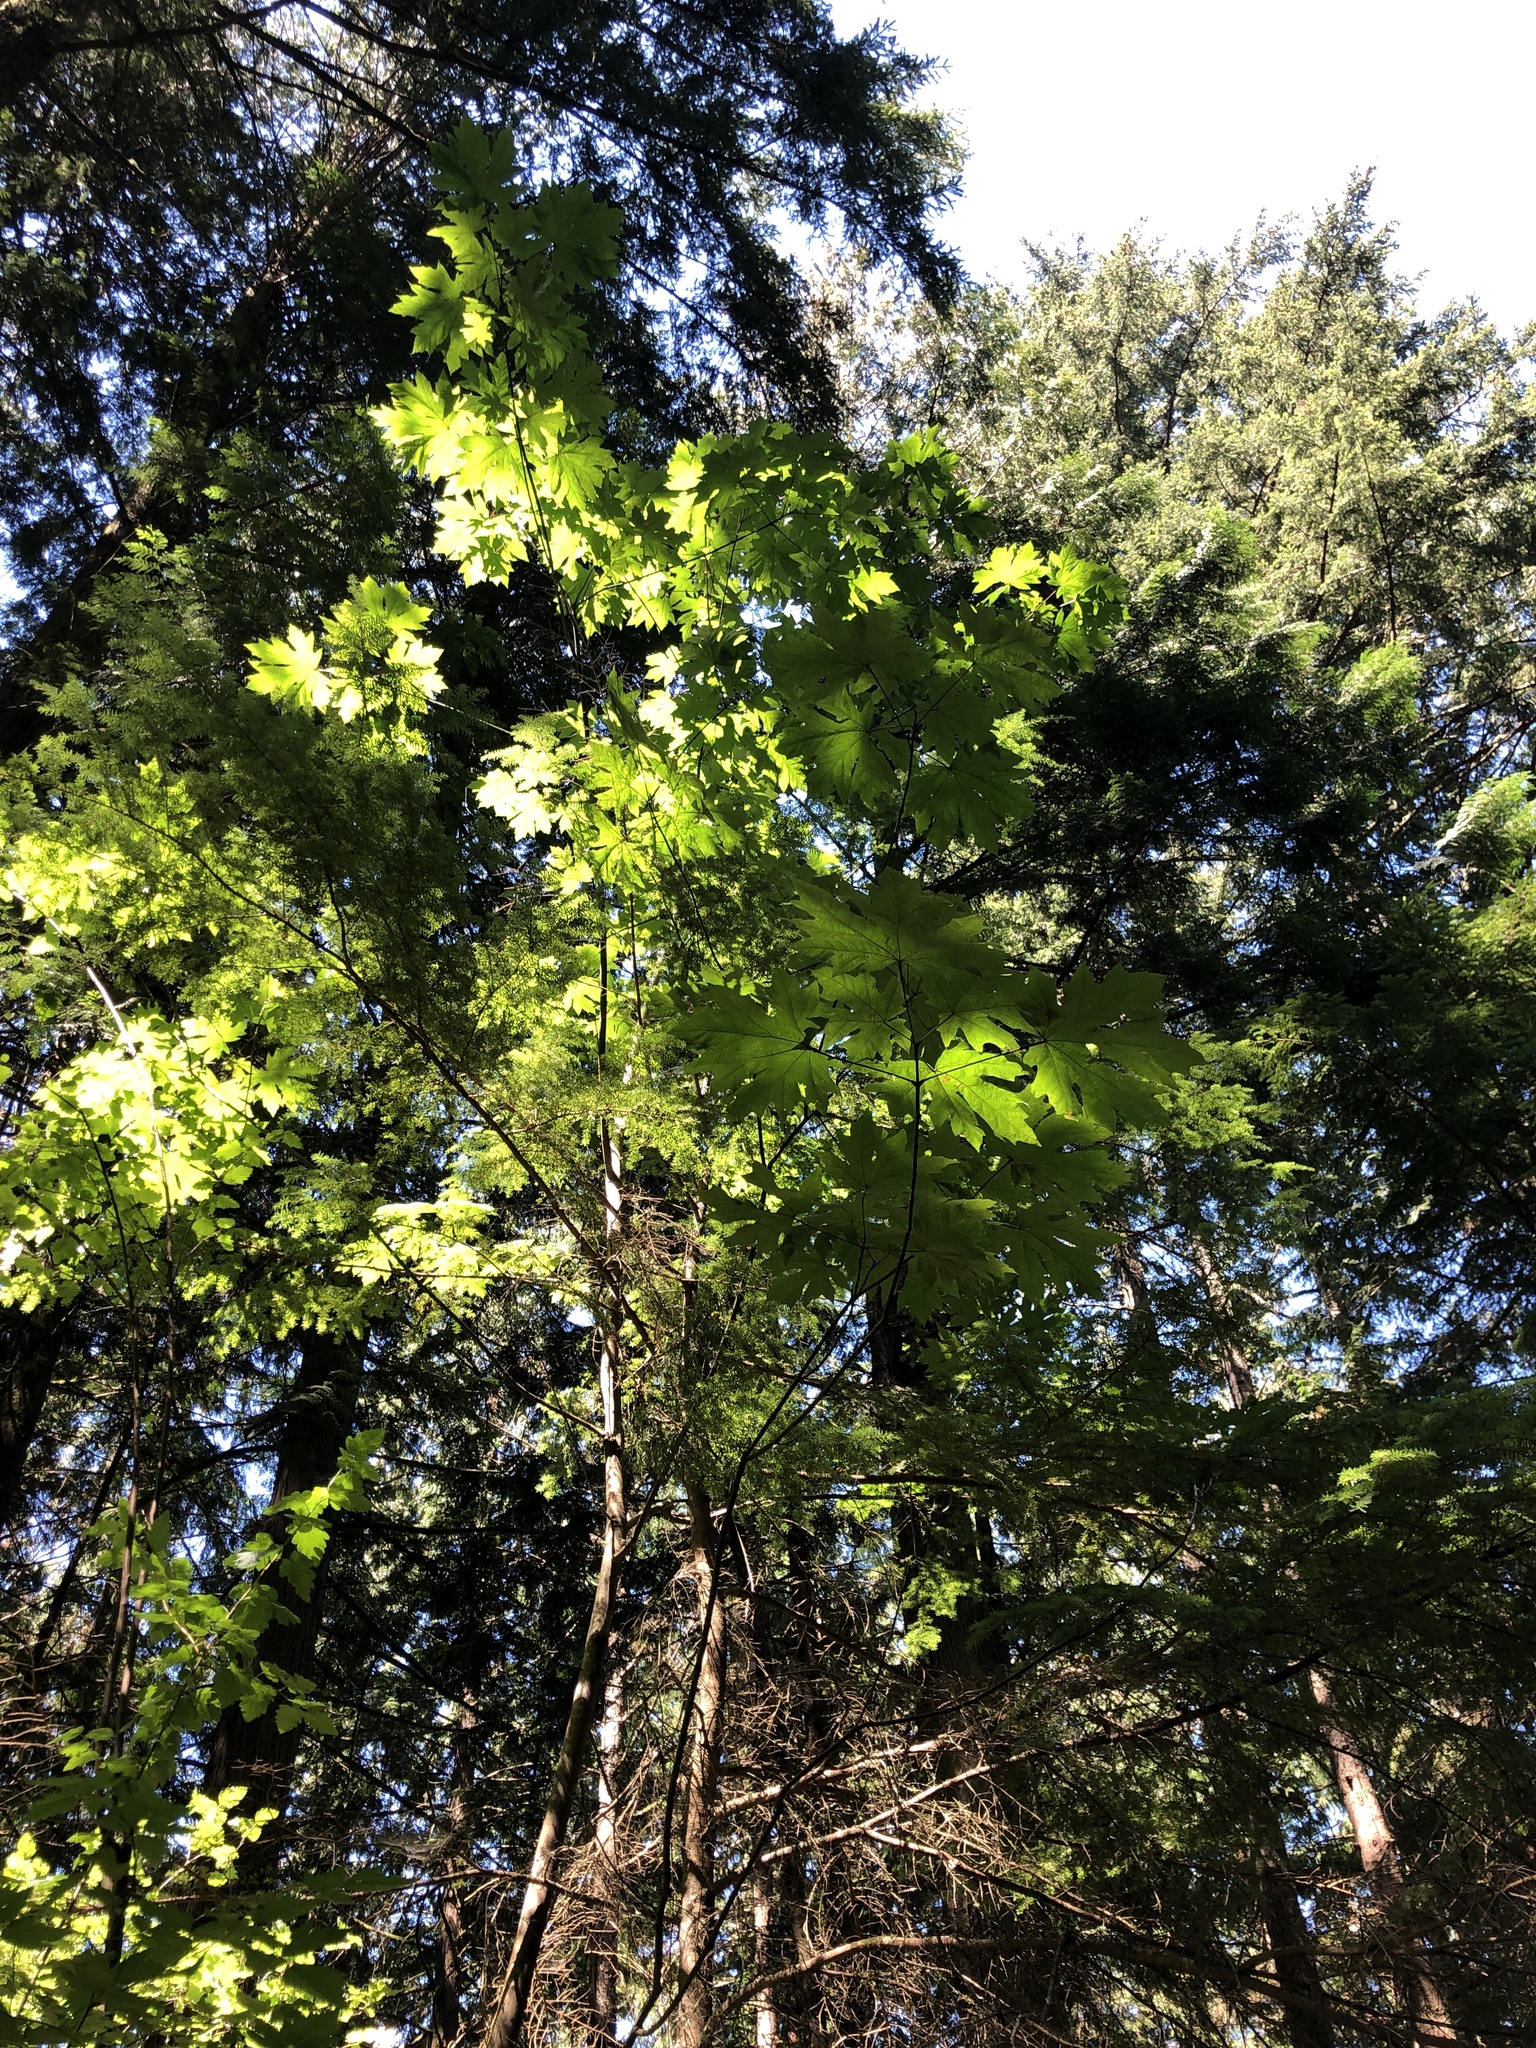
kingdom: Plantae
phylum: Tracheophyta
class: Magnoliopsida
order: Sapindales
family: Sapindaceae
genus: Acer
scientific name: Acer macrophyllum
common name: Oregon maple
